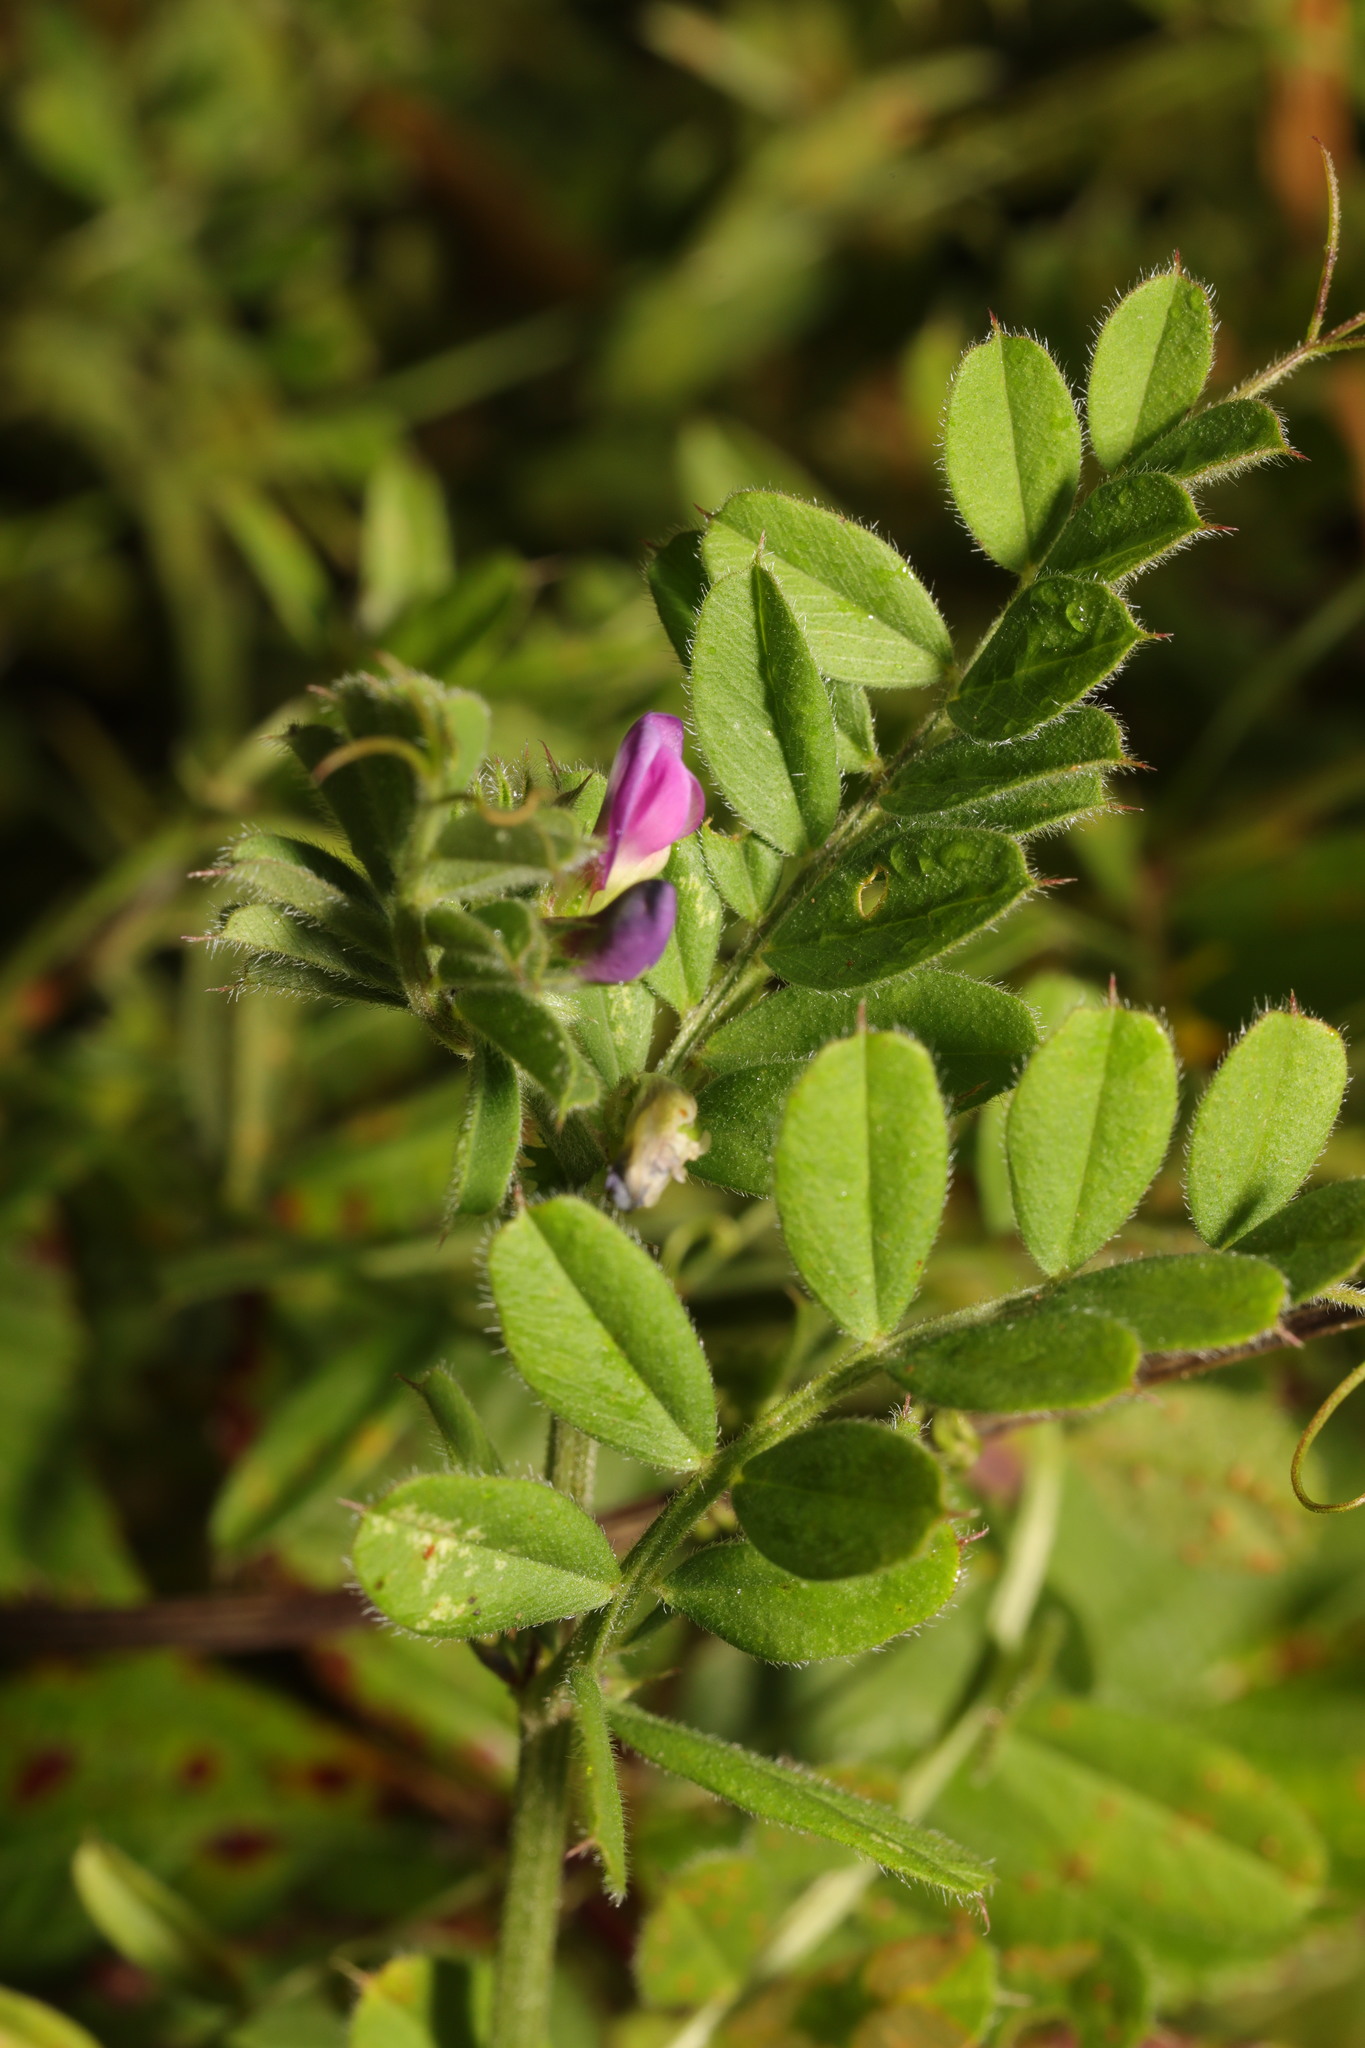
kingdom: Plantae
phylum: Tracheophyta
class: Magnoliopsida
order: Fabales
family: Fabaceae
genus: Vicia
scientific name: Vicia sativa
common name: Garden vetch
